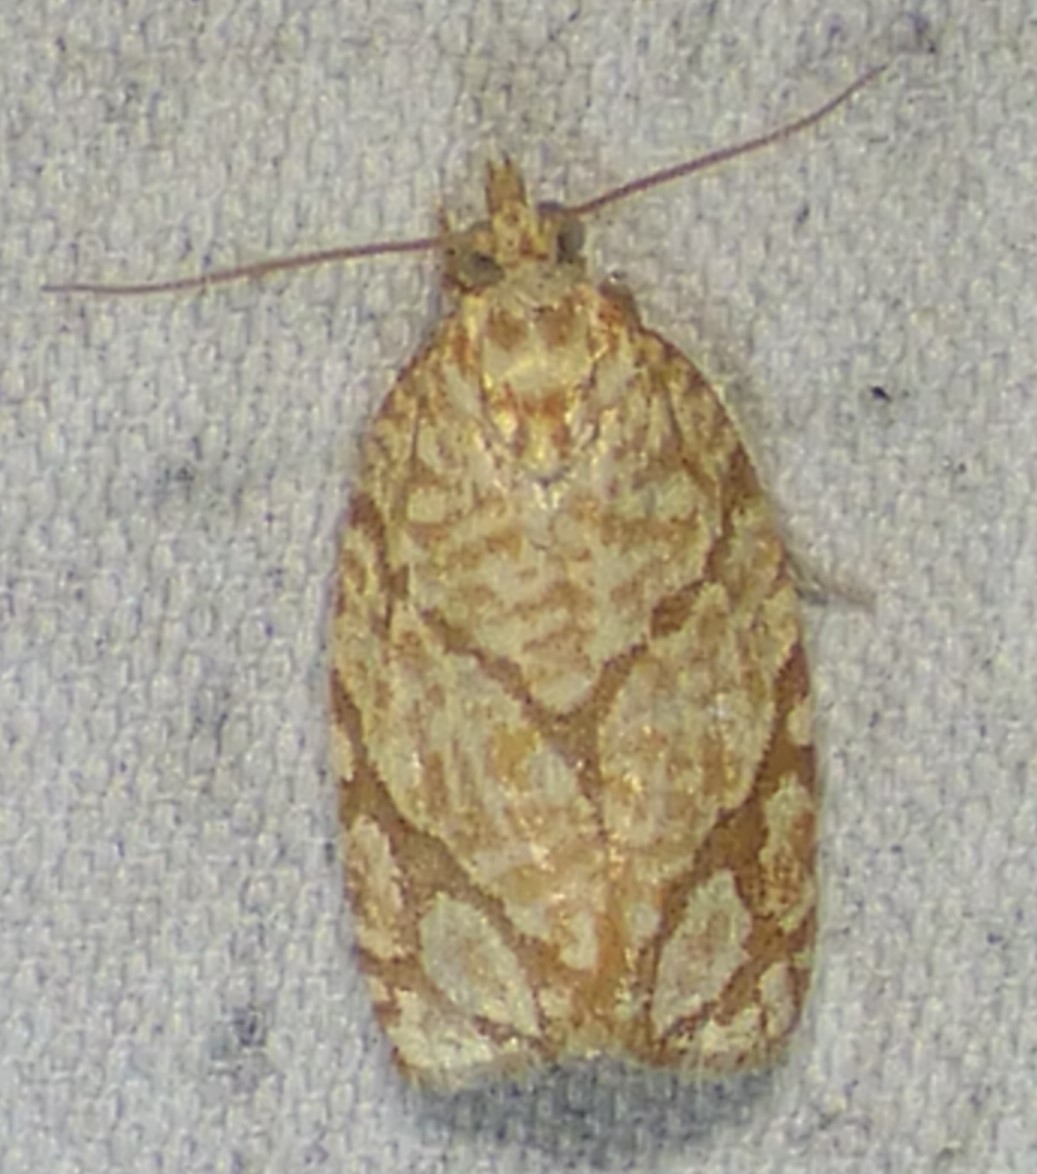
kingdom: Animalia
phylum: Arthropoda
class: Insecta
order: Lepidoptera
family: Tortricidae
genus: Argyrotaenia
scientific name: Argyrotaenia quercifoliana
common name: Yellow-winged oak leafroller moth
